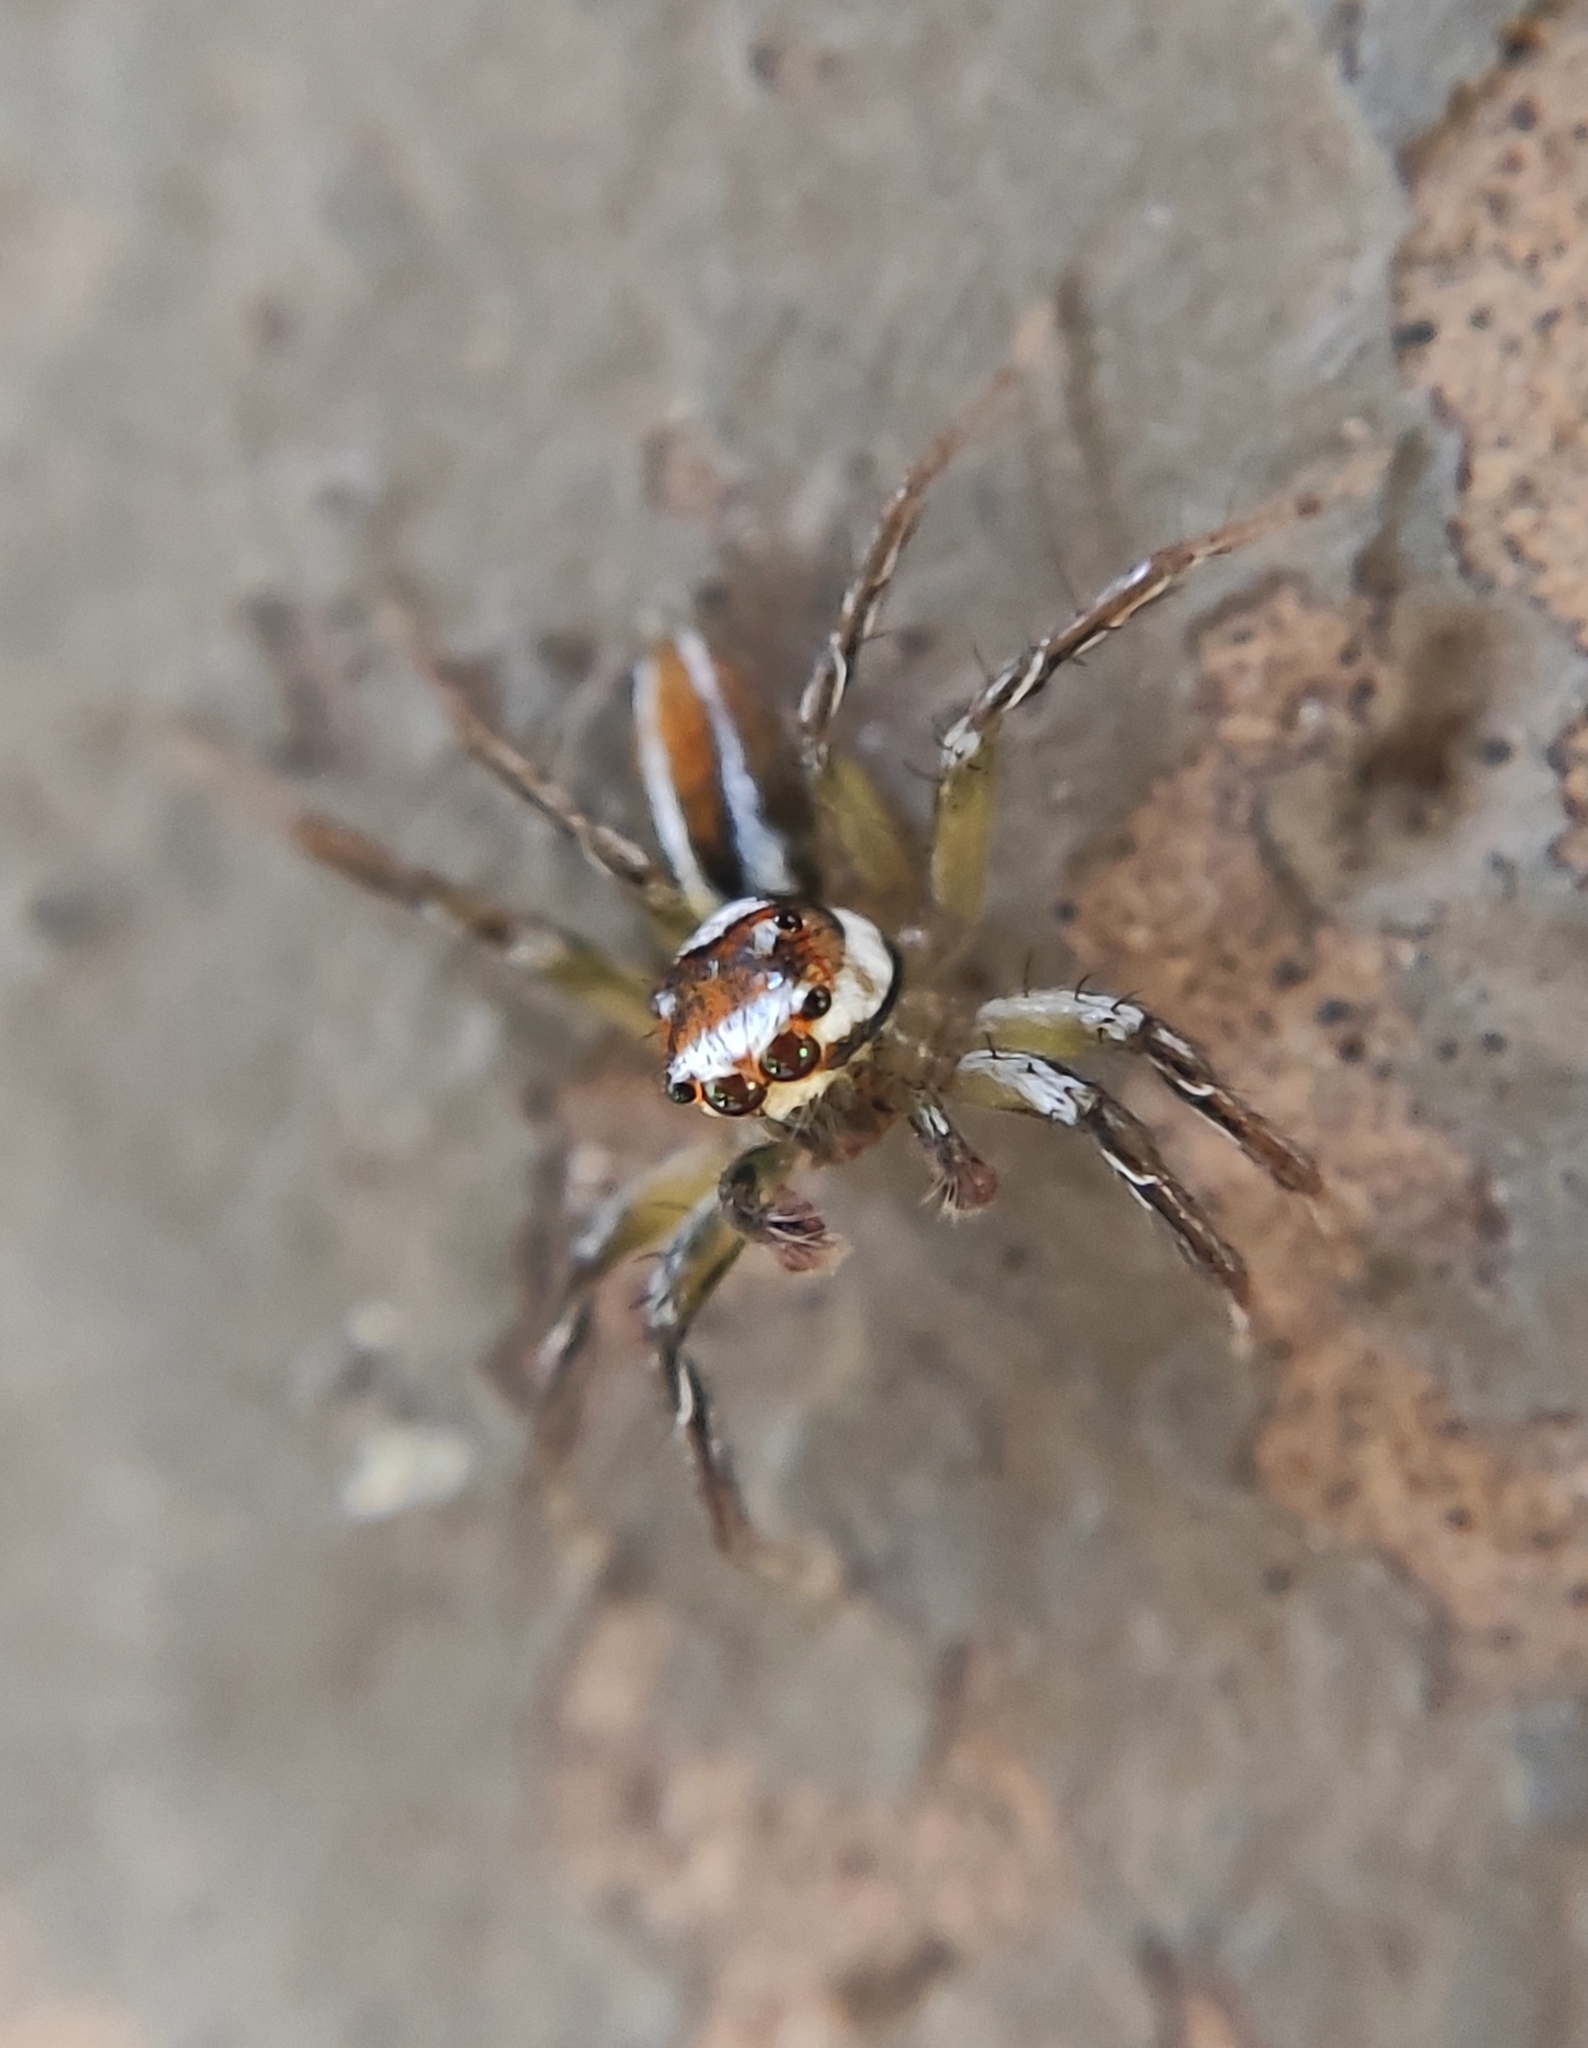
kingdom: Animalia
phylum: Arthropoda
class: Arachnida
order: Araneae
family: Salticidae
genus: Chira
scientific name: Chira simoni
